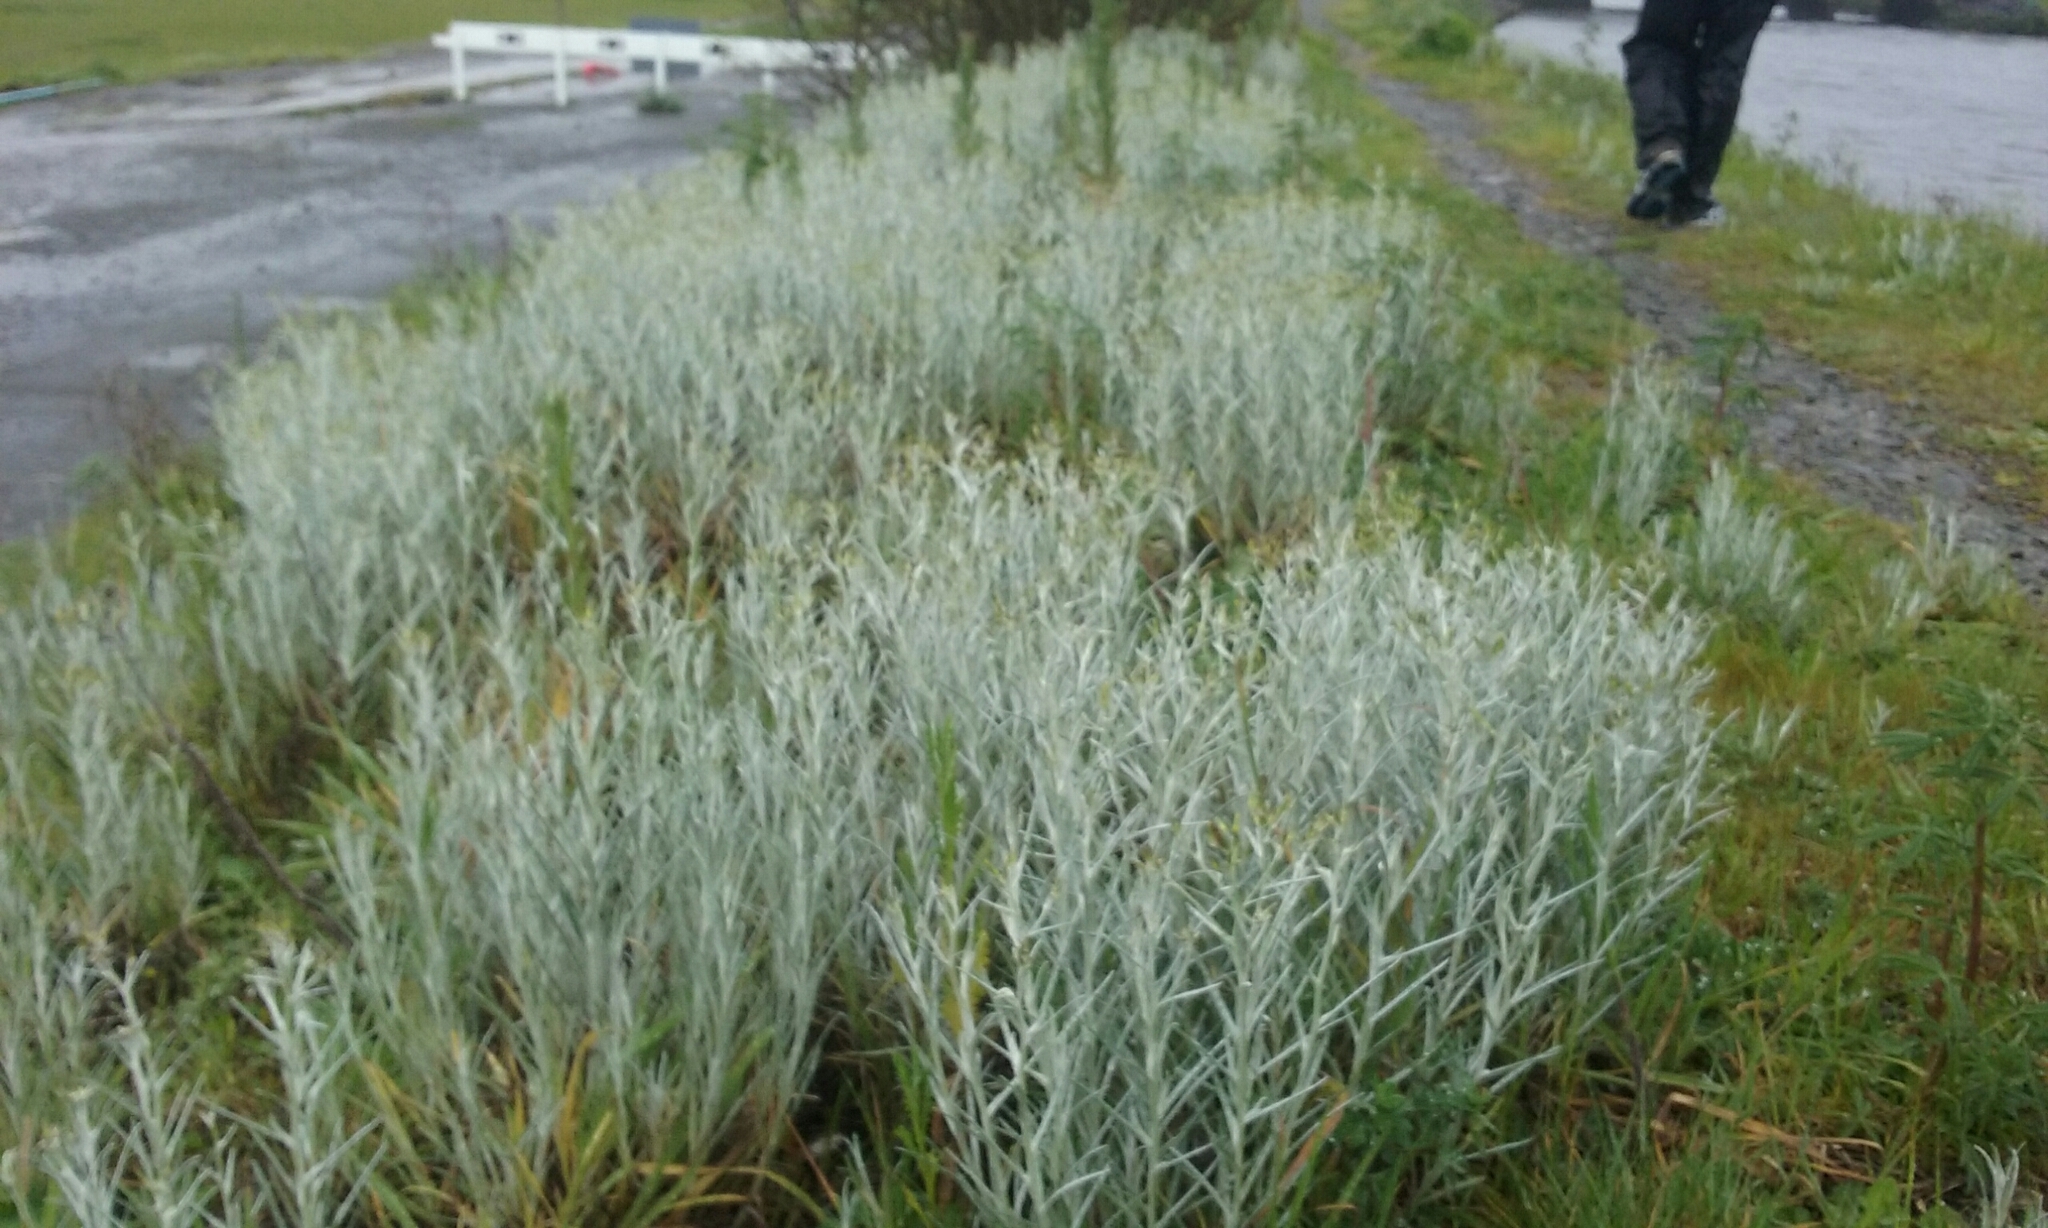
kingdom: Plantae
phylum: Tracheophyta
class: Magnoliopsida
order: Asterales
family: Asteraceae
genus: Senecio
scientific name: Senecio quadridentatus
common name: Cotton fireweed
